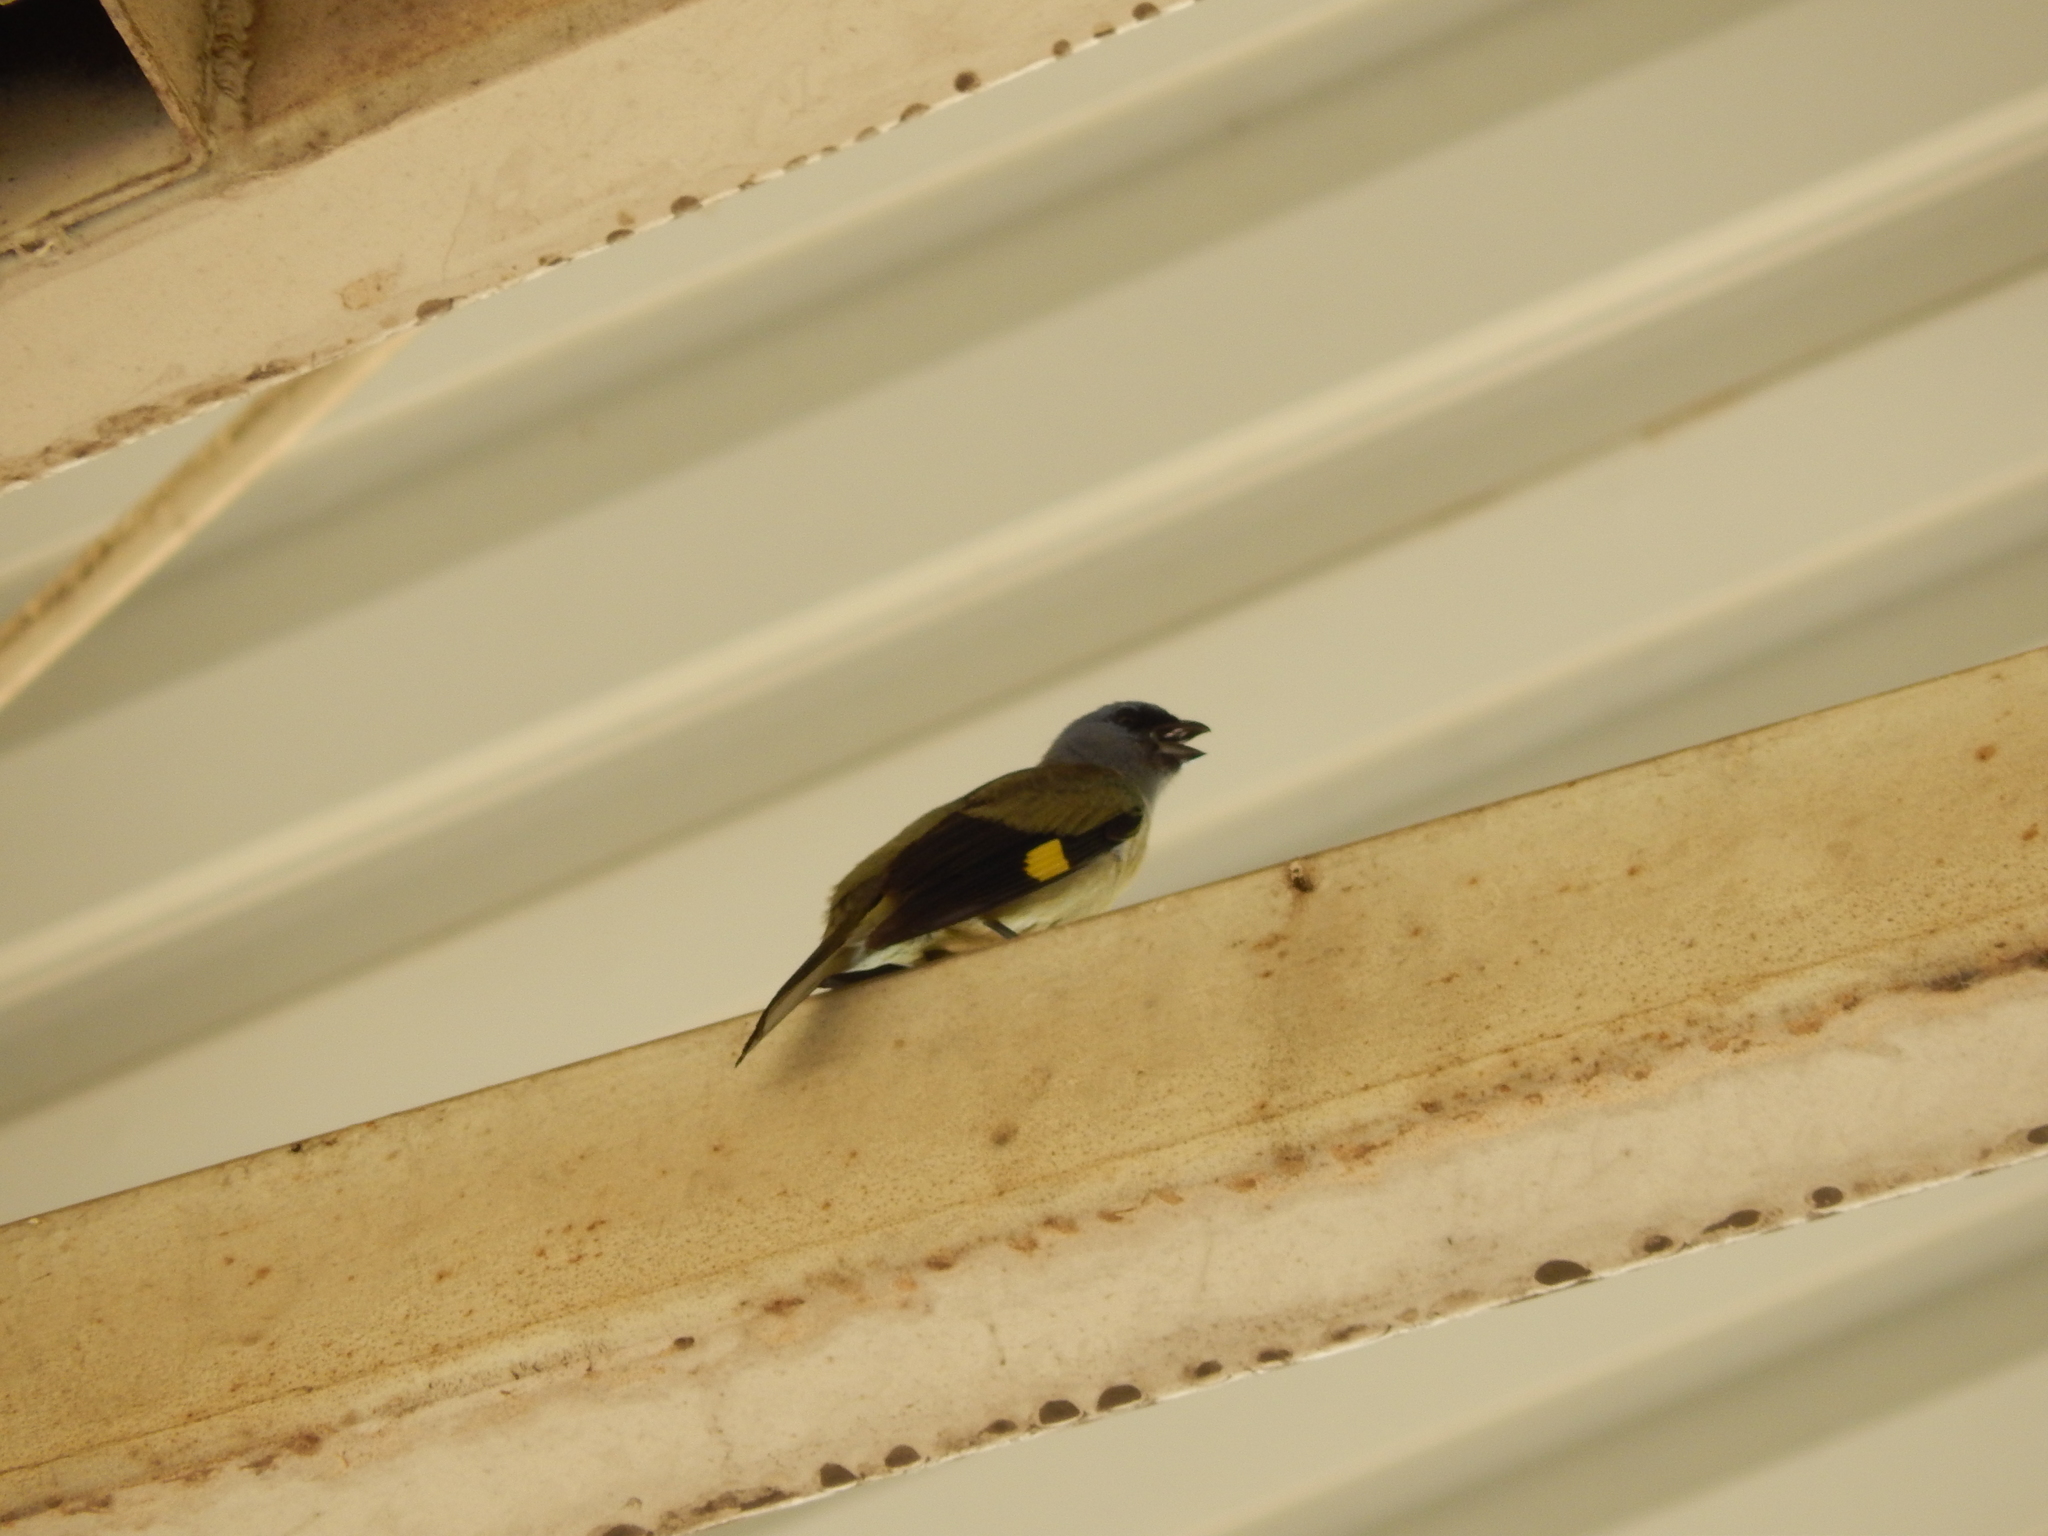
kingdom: Animalia
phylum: Chordata
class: Aves
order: Passeriformes
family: Thraupidae
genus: Thraupis
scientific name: Thraupis abbas
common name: Yellow-winged tanager
